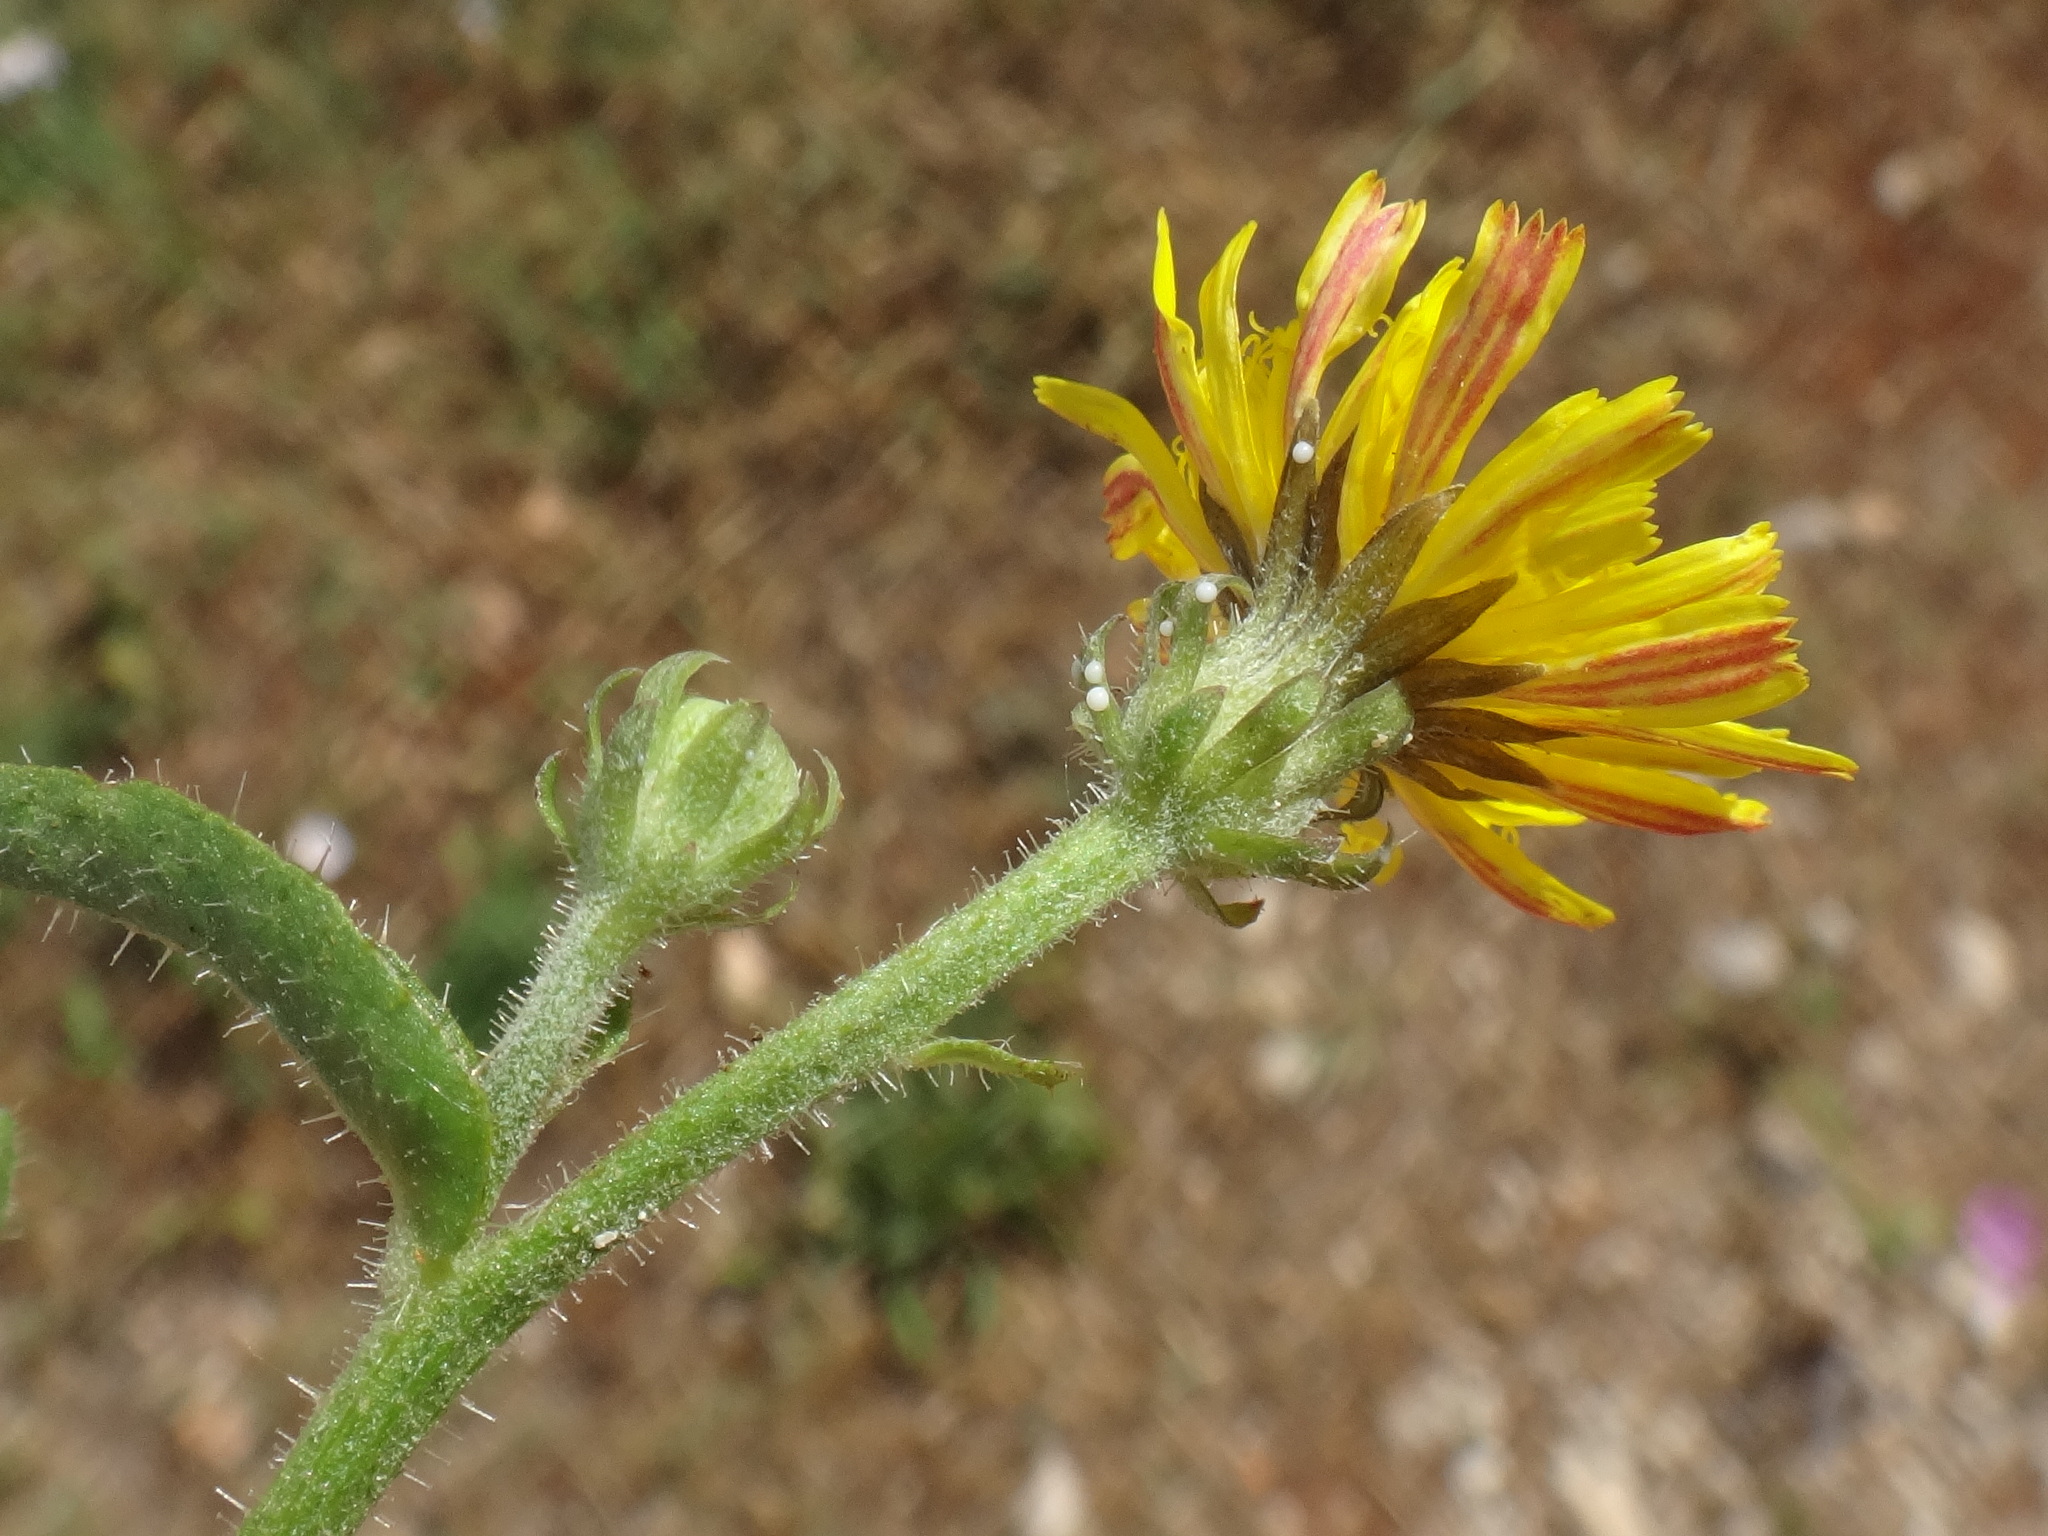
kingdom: Plantae
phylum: Tracheophyta
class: Magnoliopsida
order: Asterales
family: Asteraceae
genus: Picris
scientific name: Picris hieracioides
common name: Hawkweed oxtongue
